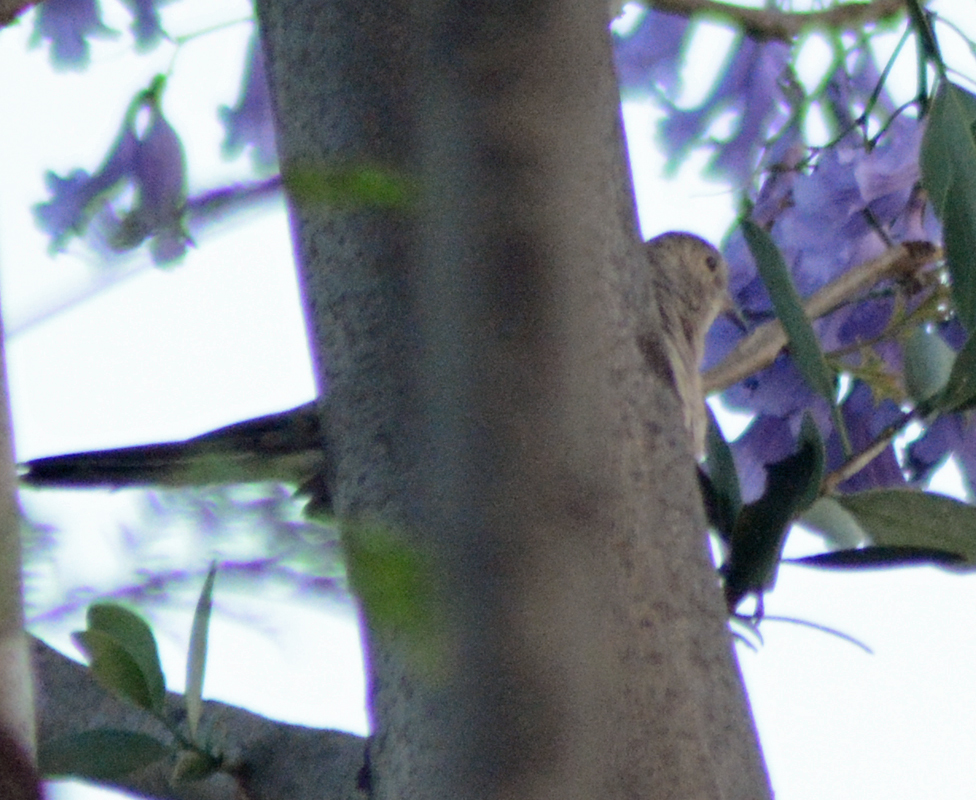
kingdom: Animalia
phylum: Chordata
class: Aves
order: Columbiformes
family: Columbidae
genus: Columbina
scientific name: Columbina inca
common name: Inca dove
